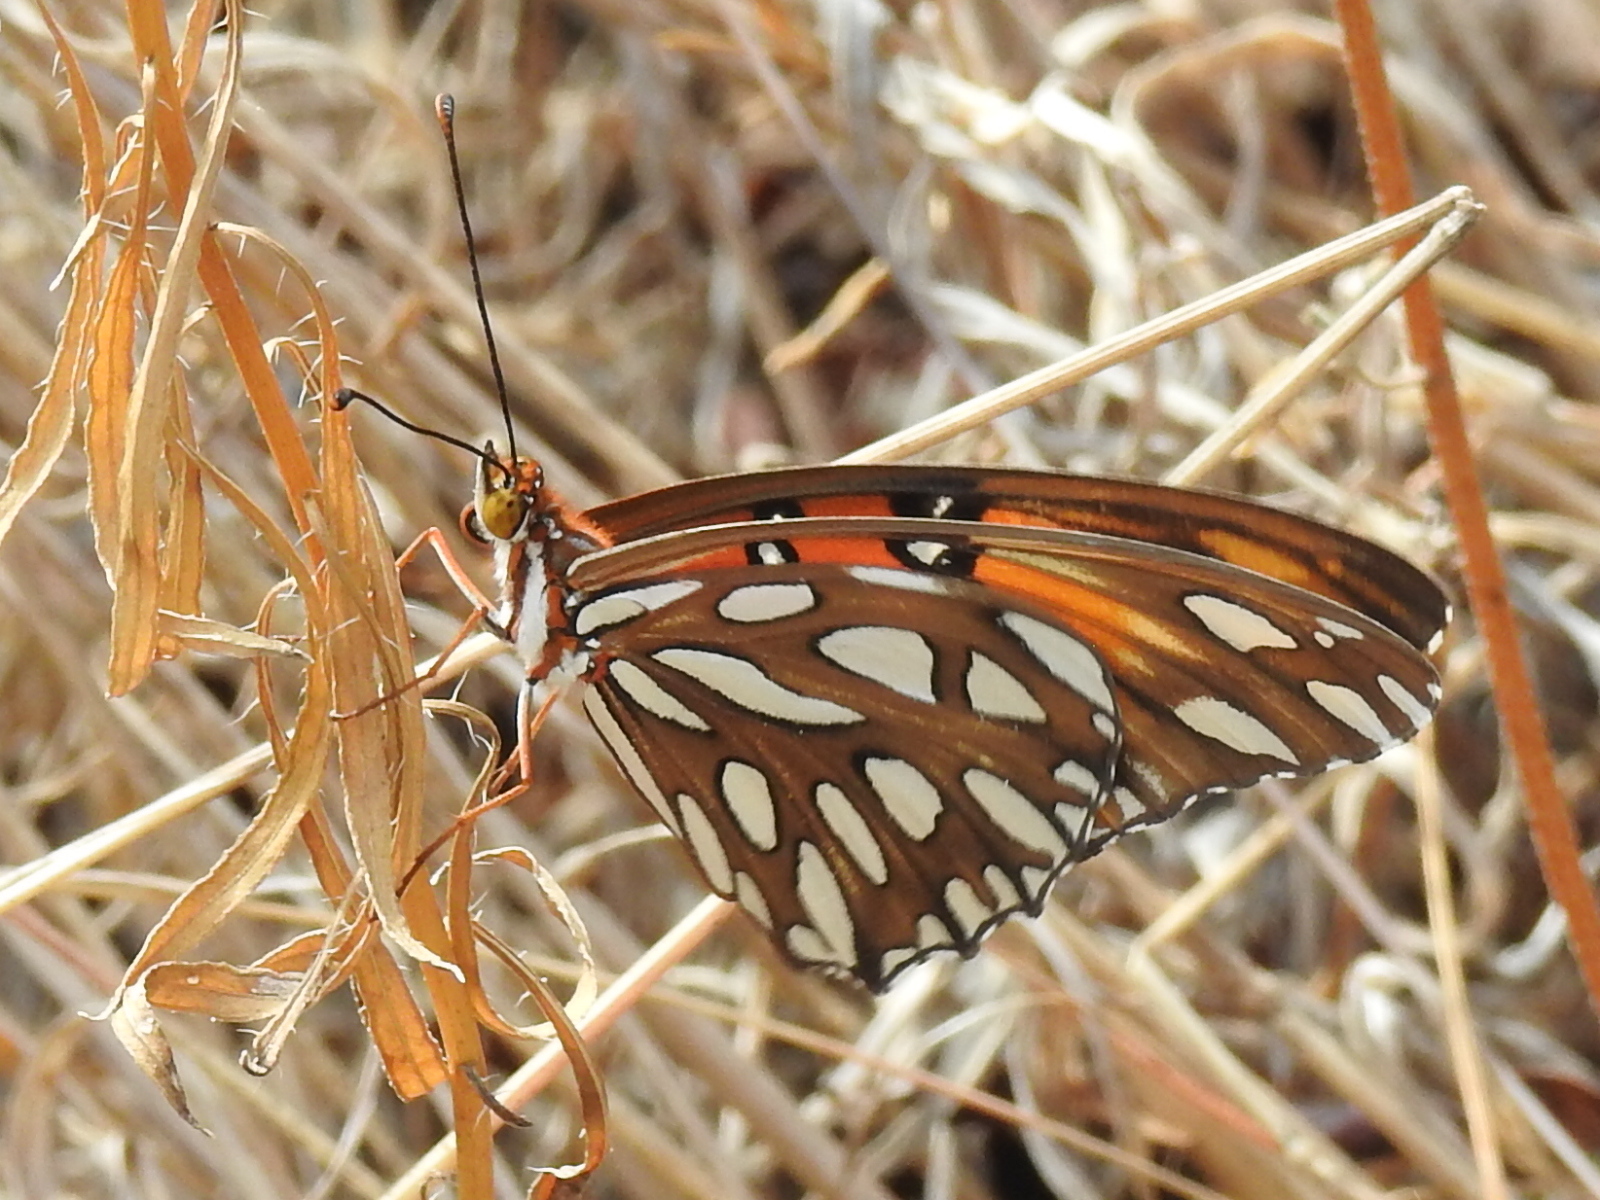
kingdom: Animalia
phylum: Arthropoda
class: Insecta
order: Lepidoptera
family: Nymphalidae
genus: Dione
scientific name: Dione vanillae
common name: Gulf fritillary
